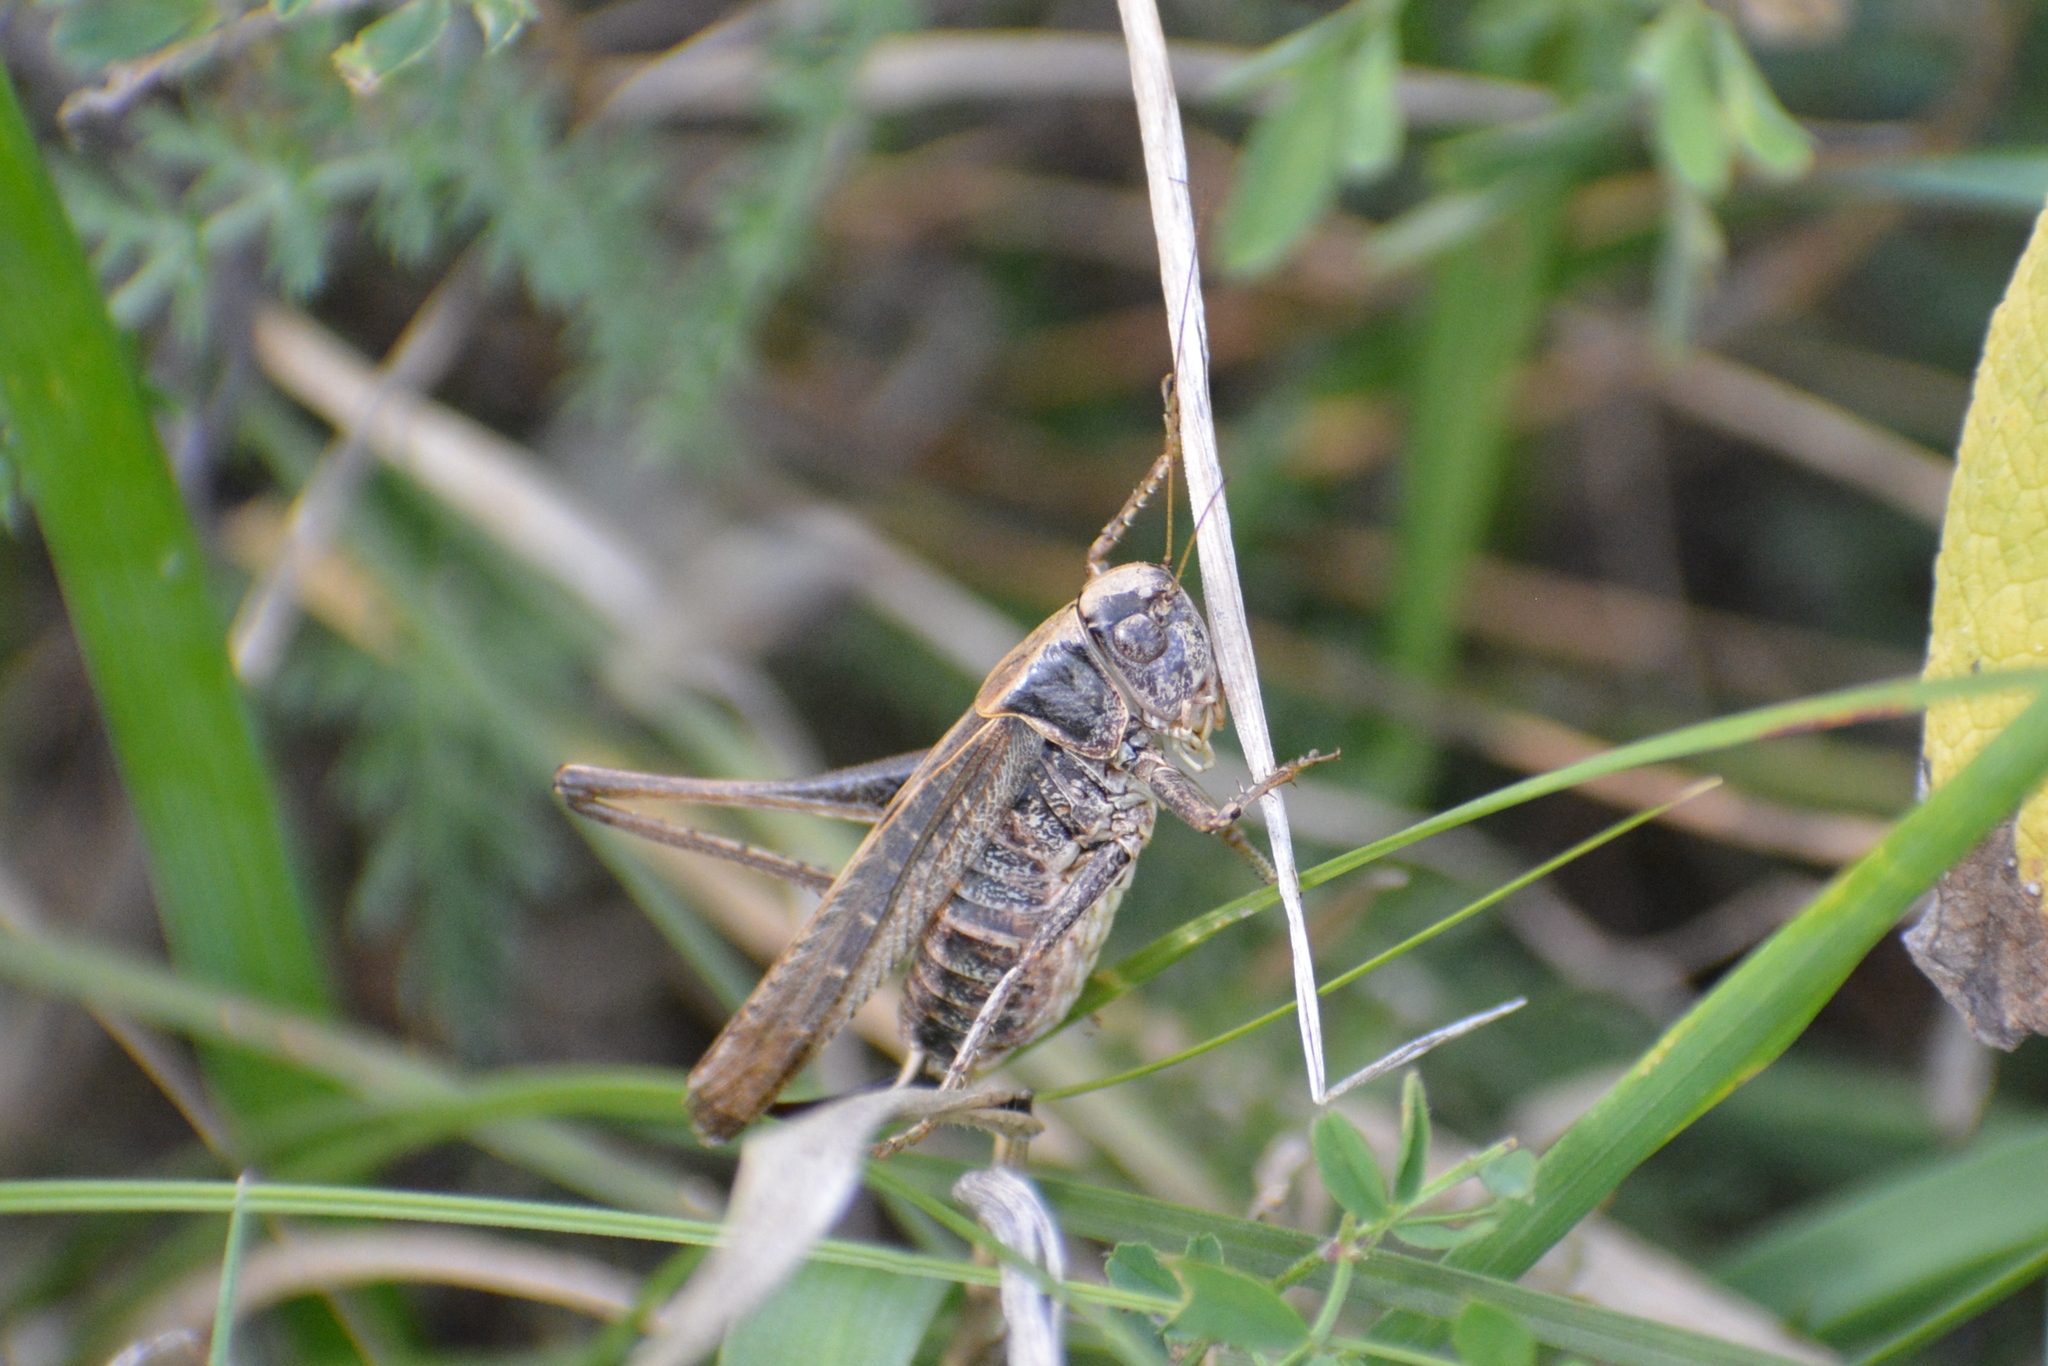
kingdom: Animalia
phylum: Arthropoda
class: Insecta
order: Orthoptera
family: Tettigoniidae
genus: Platycleis
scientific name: Platycleis albopunctata
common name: Grey bush-cricket
